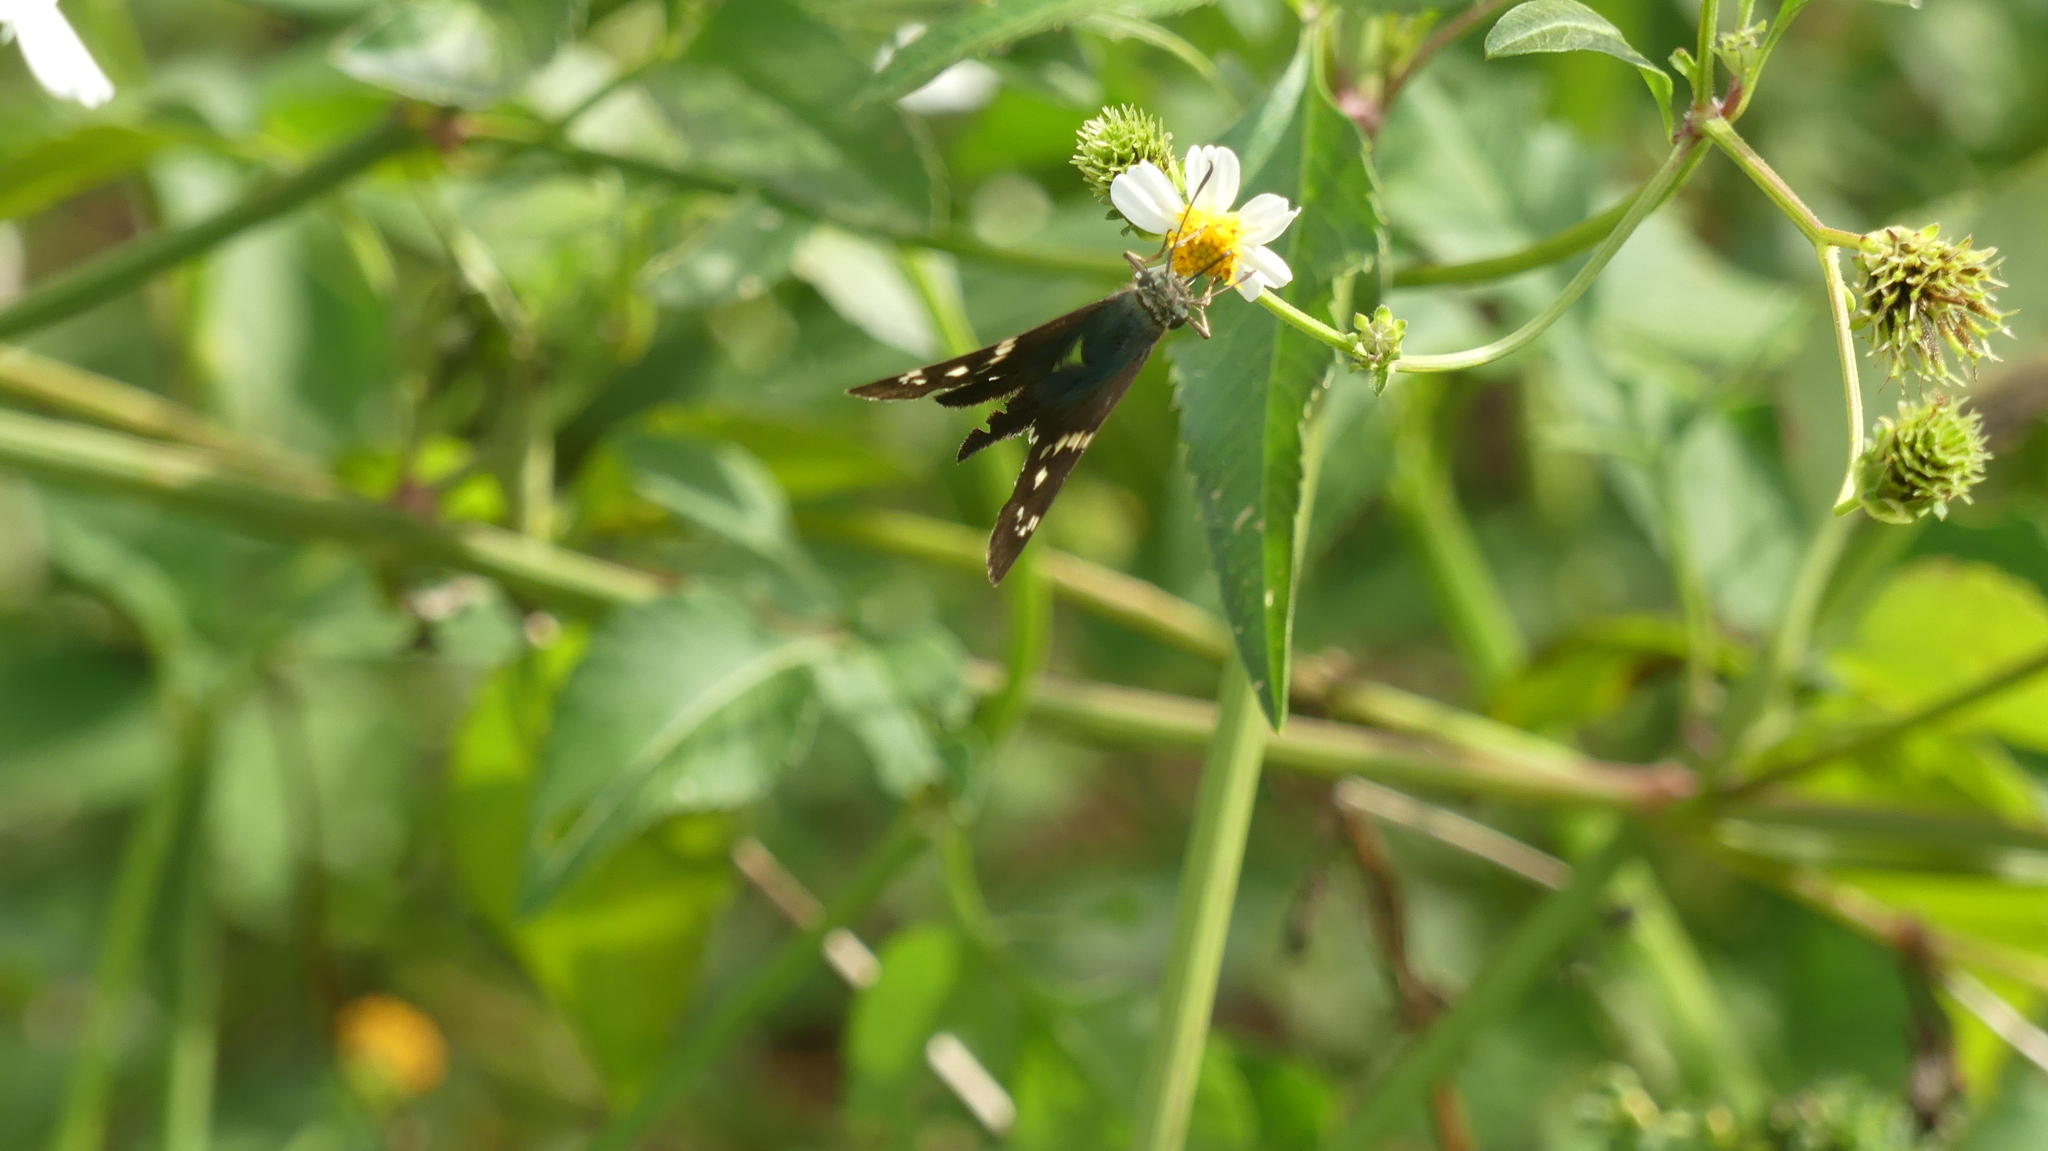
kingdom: Animalia
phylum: Arthropoda
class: Insecta
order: Lepidoptera
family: Hesperiidae
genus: Urbanus
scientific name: Urbanus proteus
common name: Long-tailed skipper
